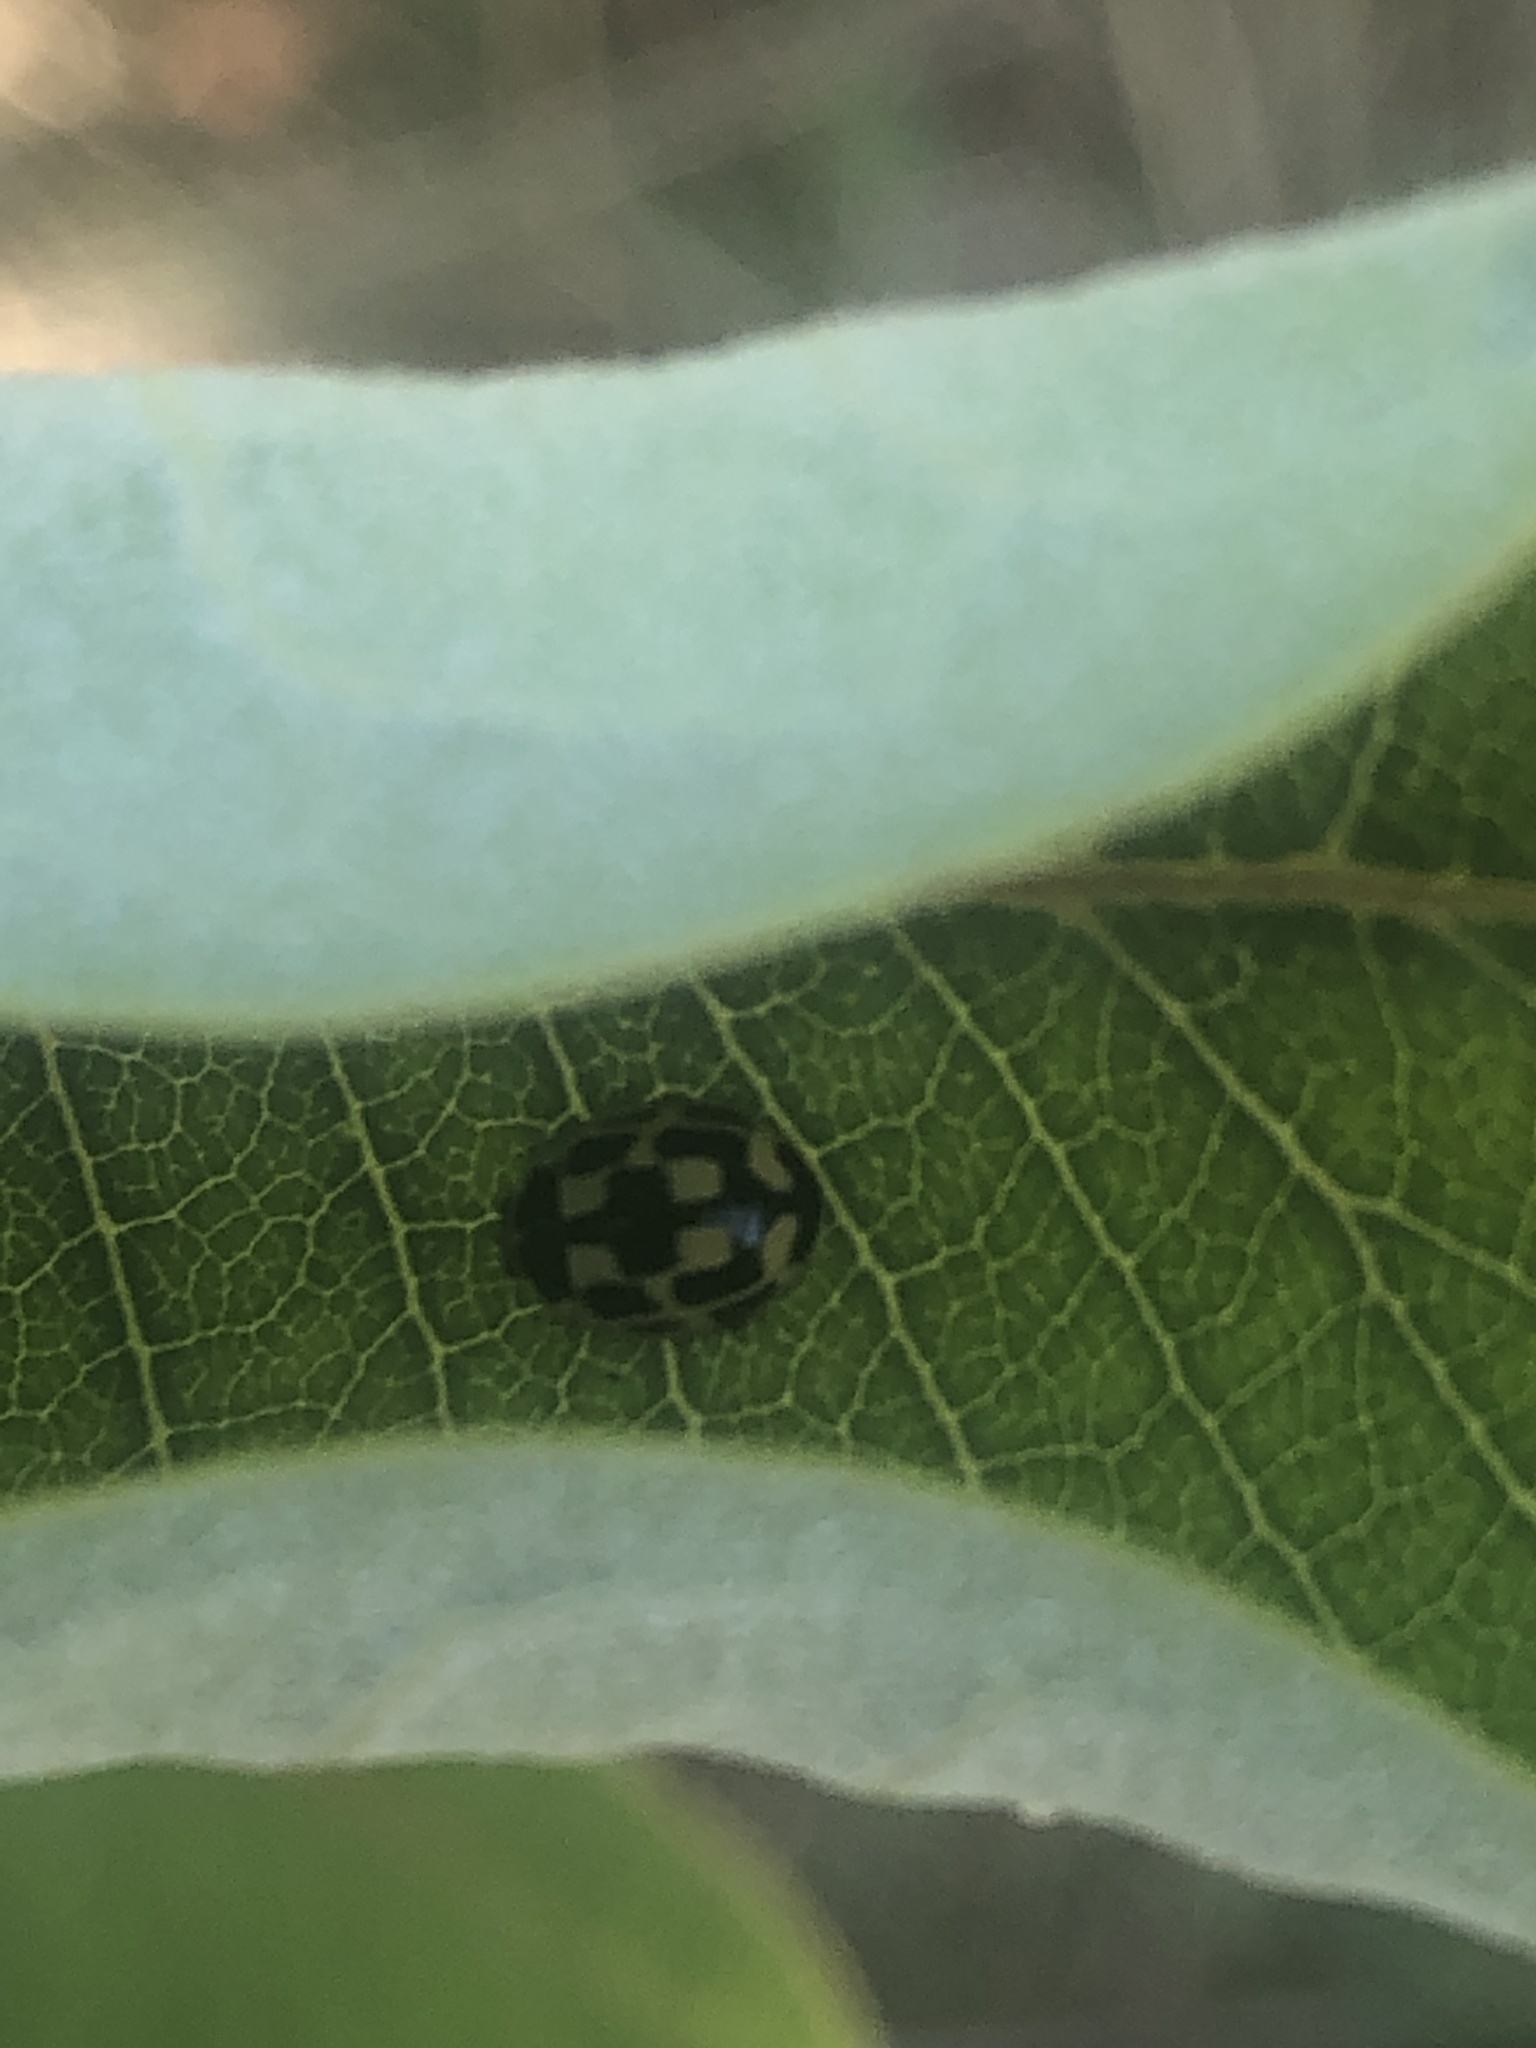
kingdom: Animalia
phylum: Arthropoda
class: Insecta
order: Coleoptera
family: Coccinellidae
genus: Propylaea
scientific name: Propylaea quatuordecimpunctata
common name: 14-spotted ladybird beetle
